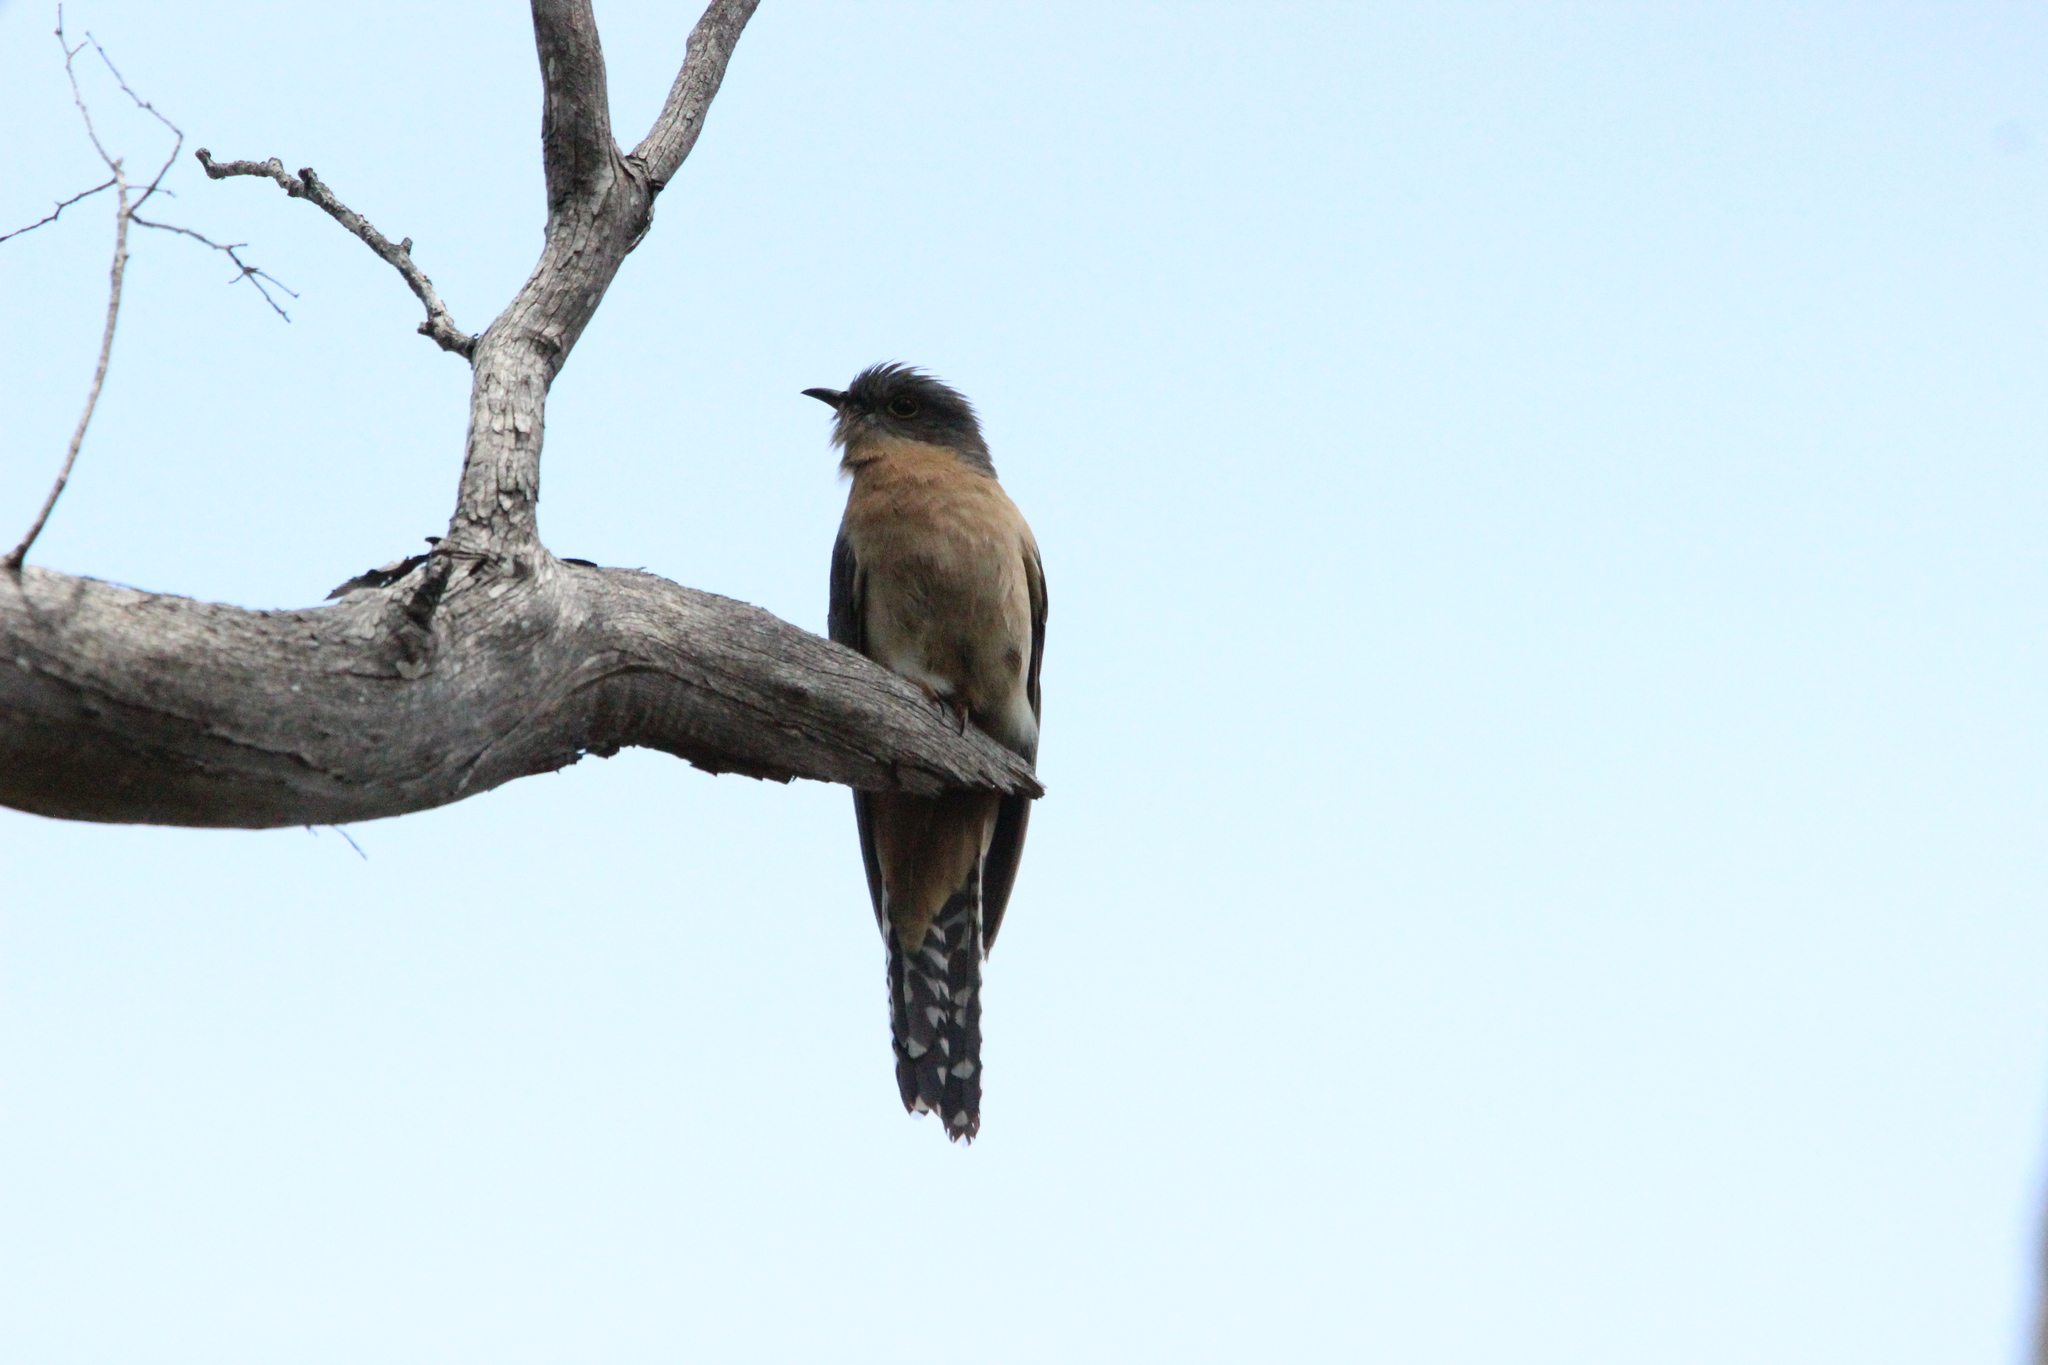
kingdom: Animalia
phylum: Chordata
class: Aves
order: Cuculiformes
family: Cuculidae
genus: Cacomantis
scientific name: Cacomantis flabelliformis
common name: Fan-tailed cuckoo
